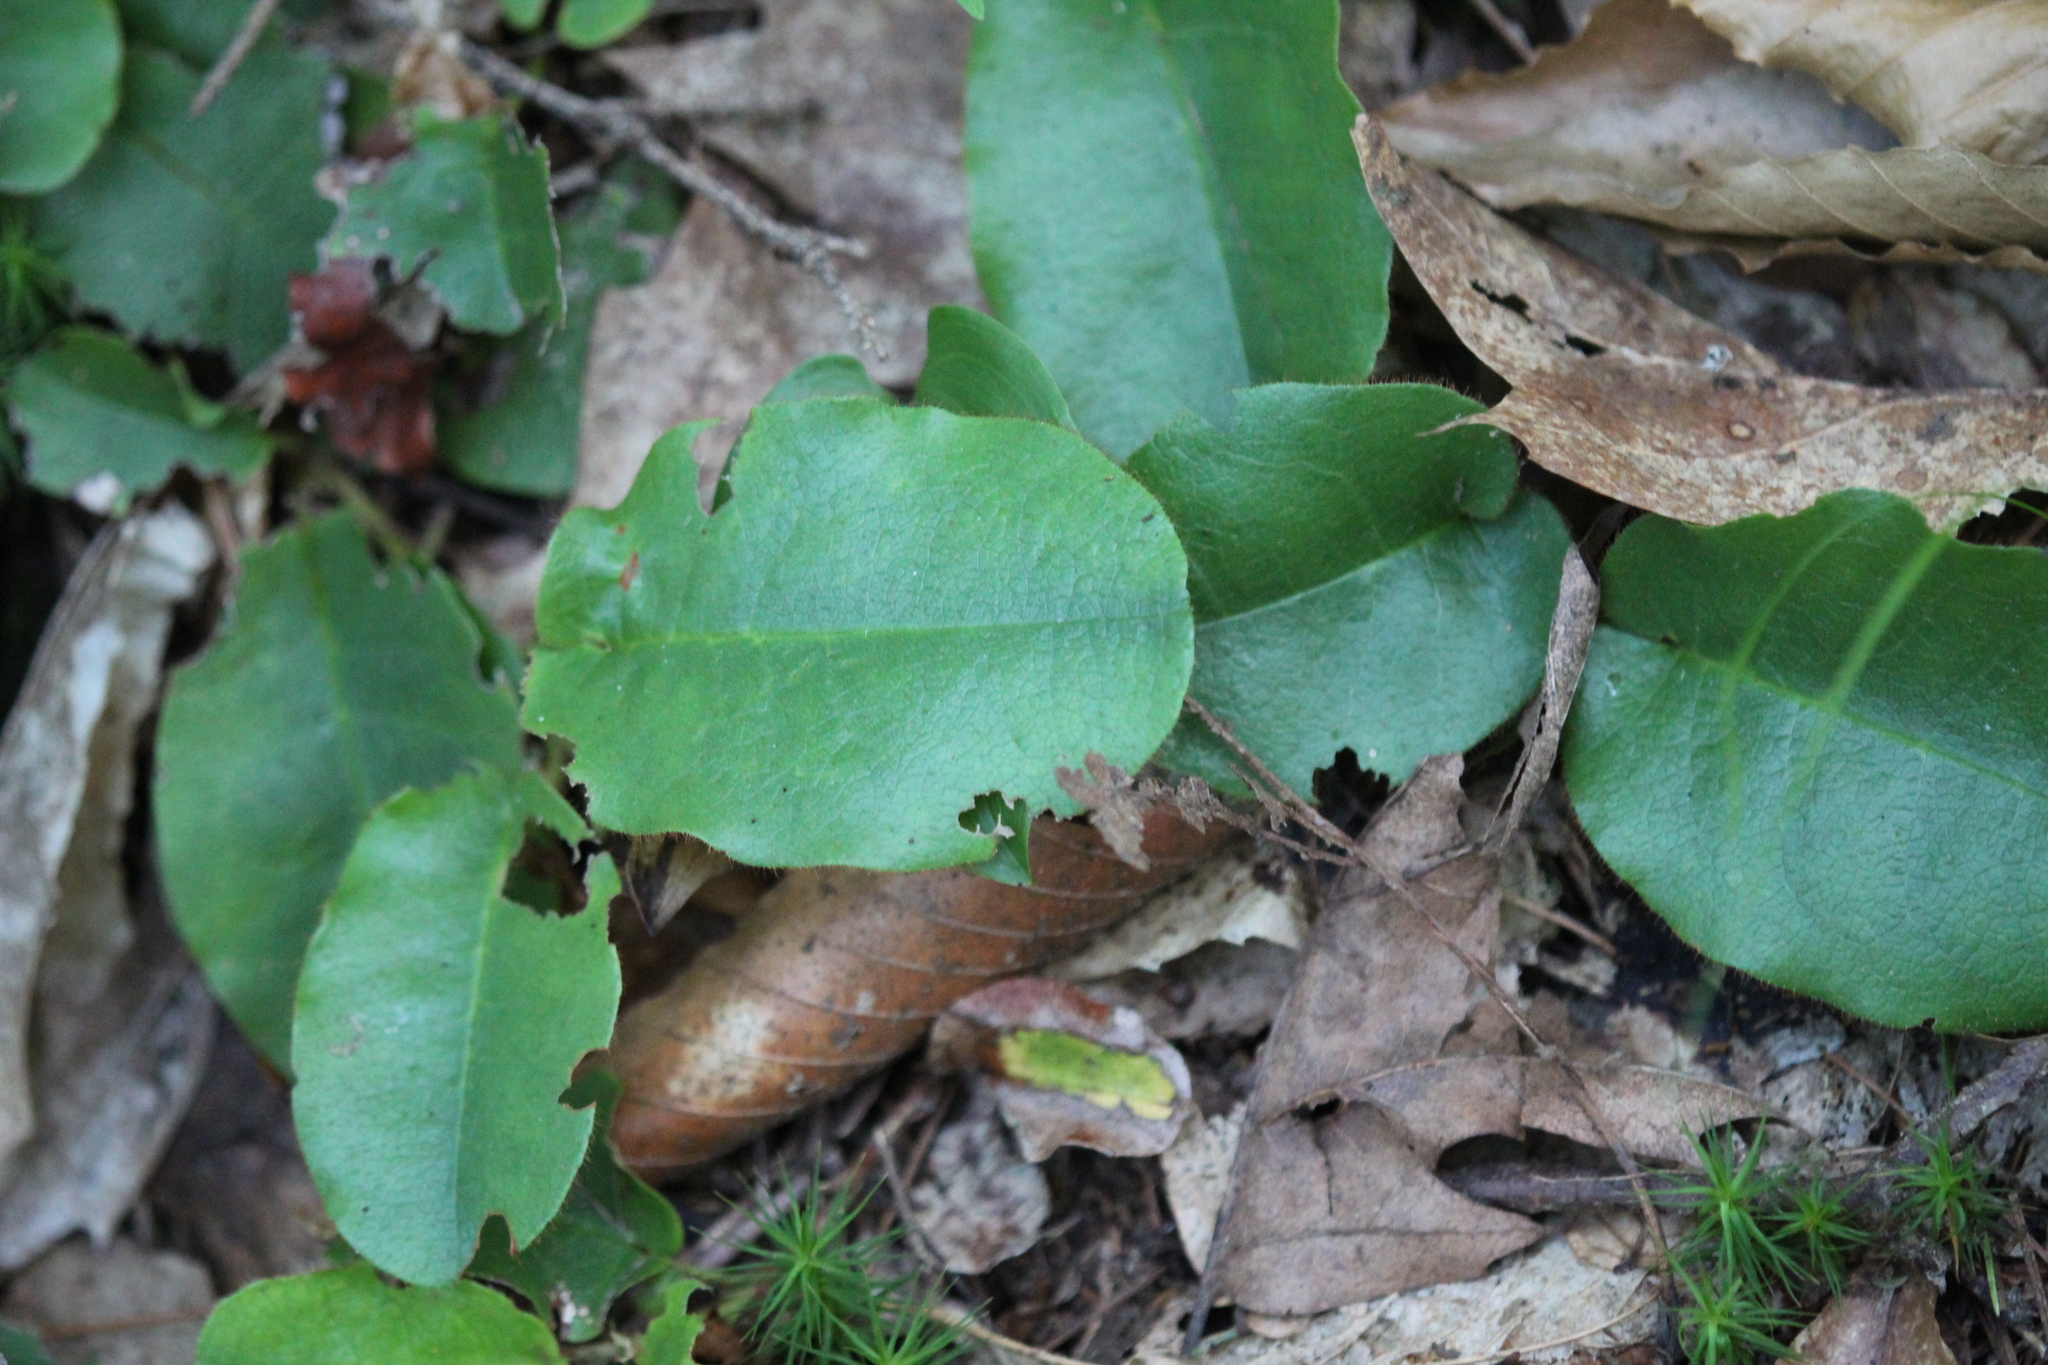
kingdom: Plantae
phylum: Tracheophyta
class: Magnoliopsida
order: Ericales
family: Ericaceae
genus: Epigaea
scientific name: Epigaea repens
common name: Gravelroot
